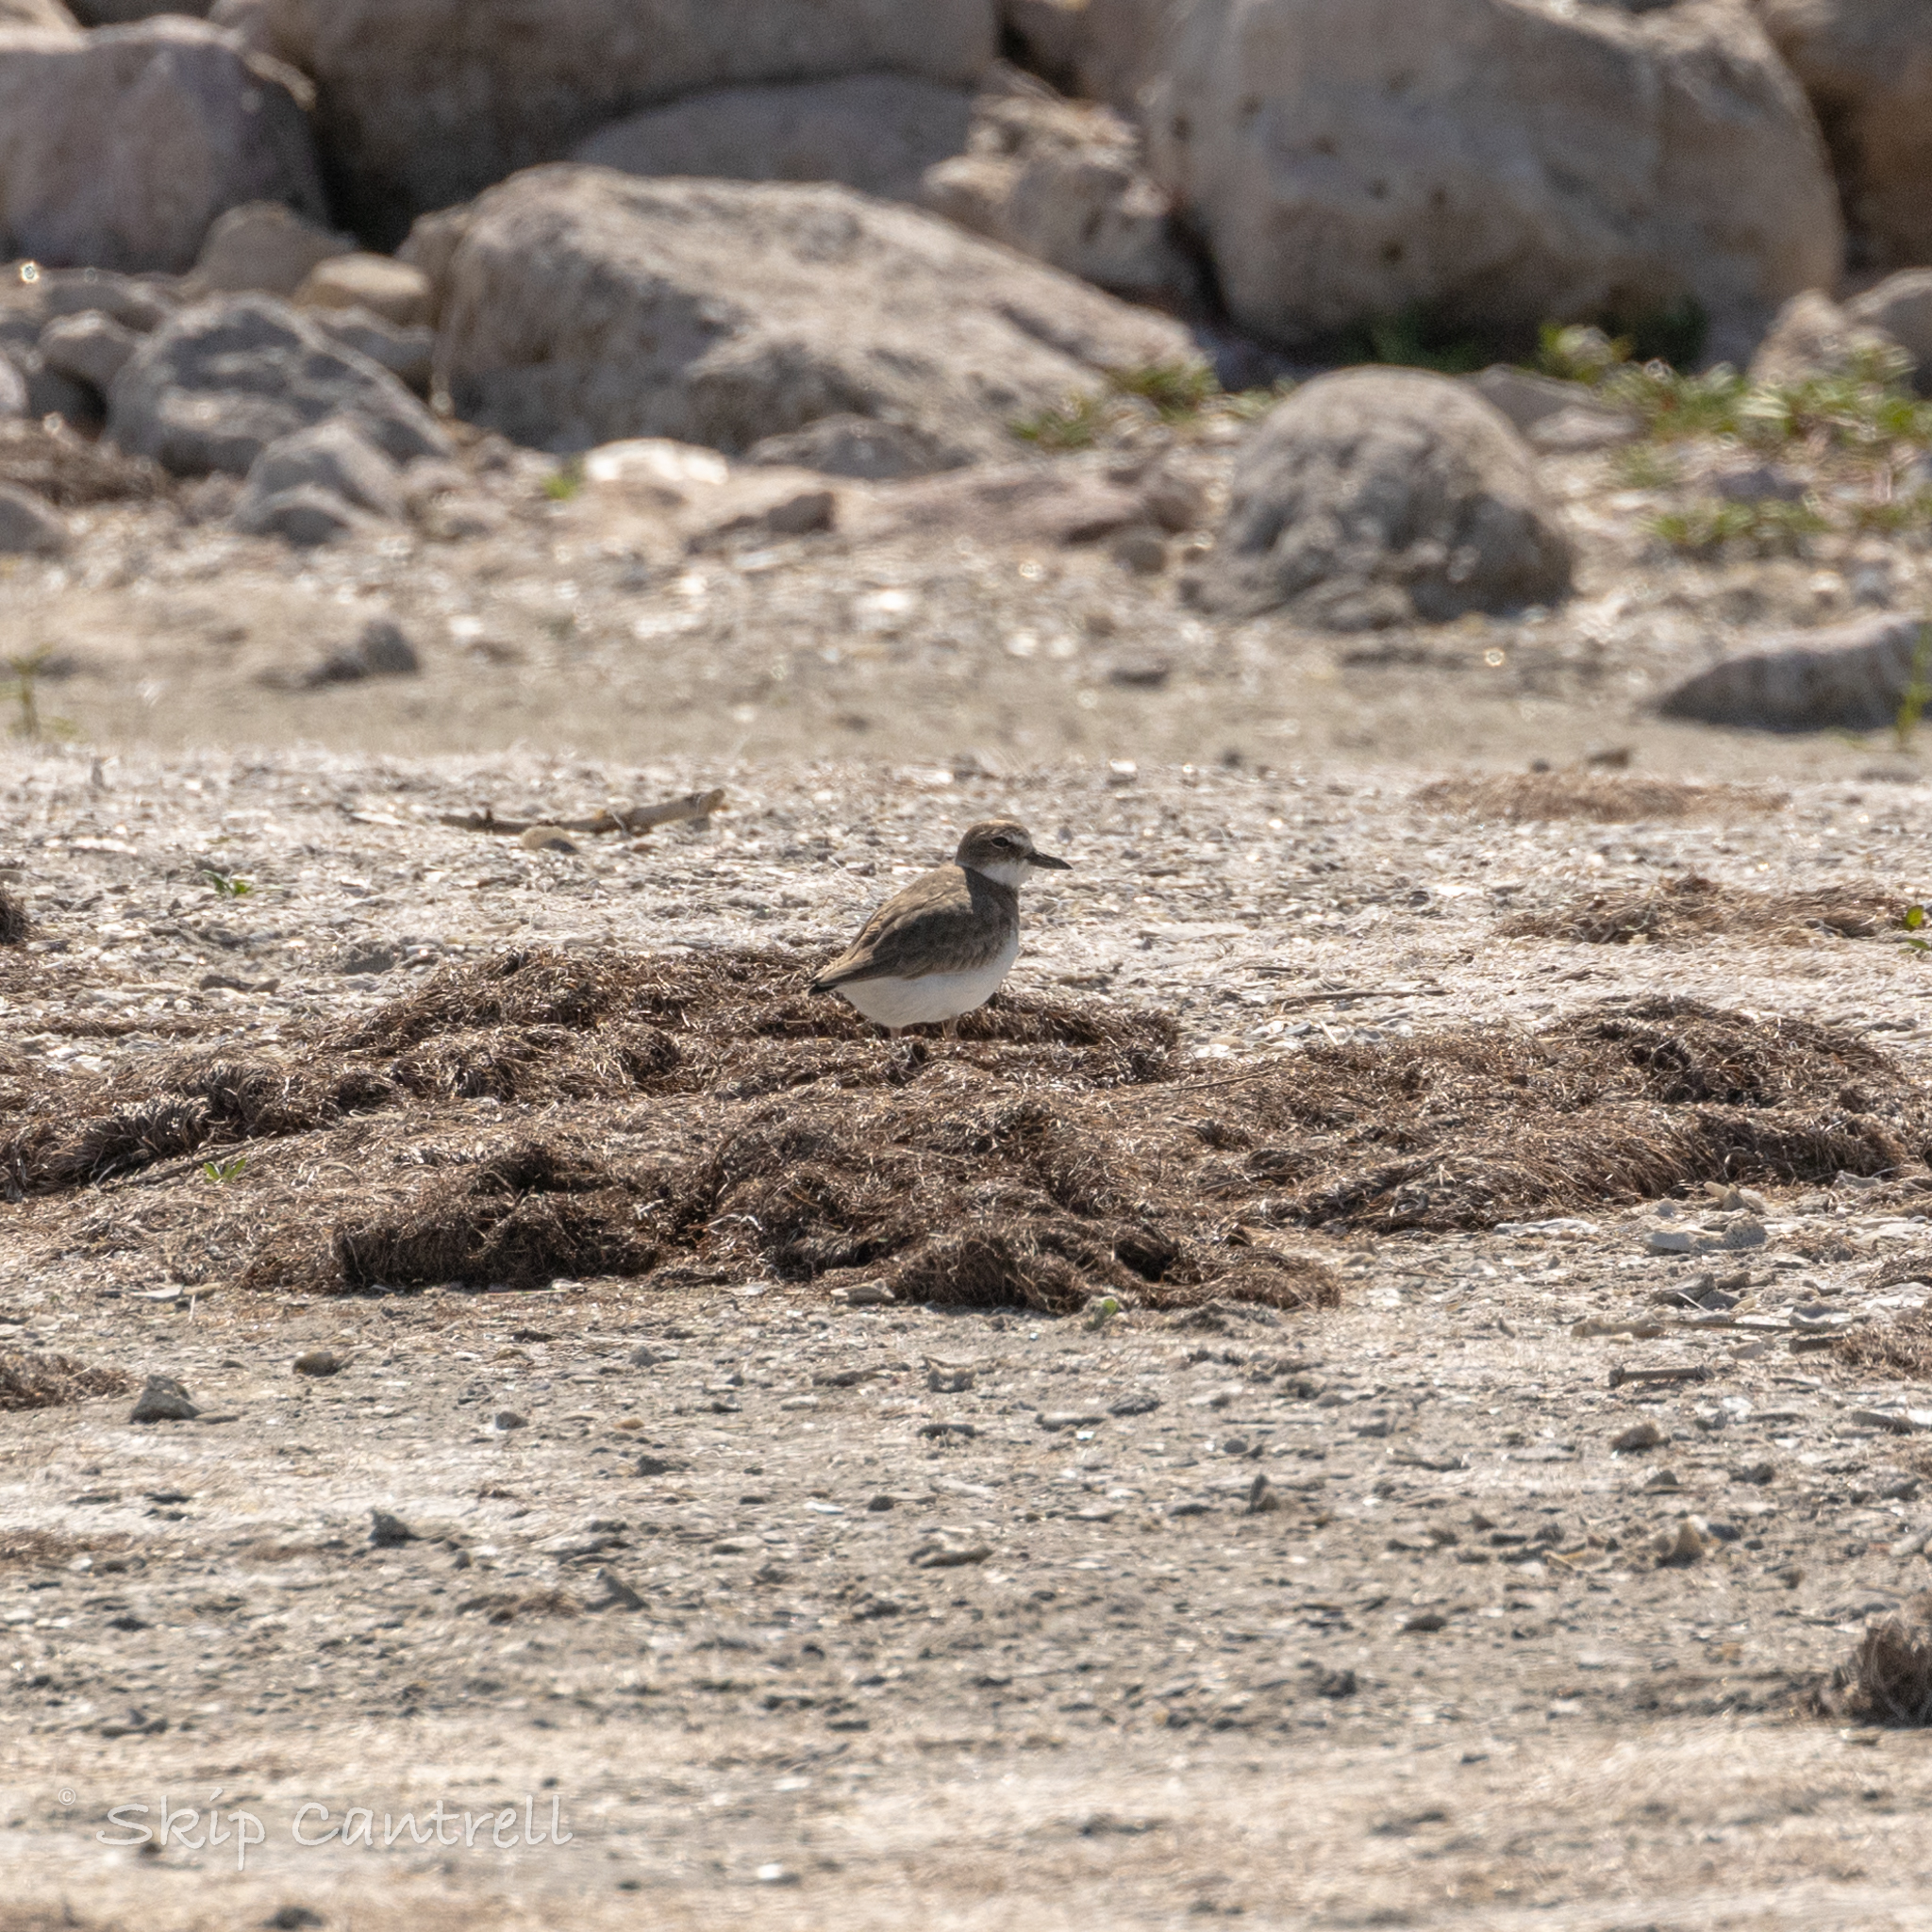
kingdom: Animalia
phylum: Chordata
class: Aves
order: Charadriiformes
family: Charadriidae
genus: Anarhynchus
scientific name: Anarhynchus
